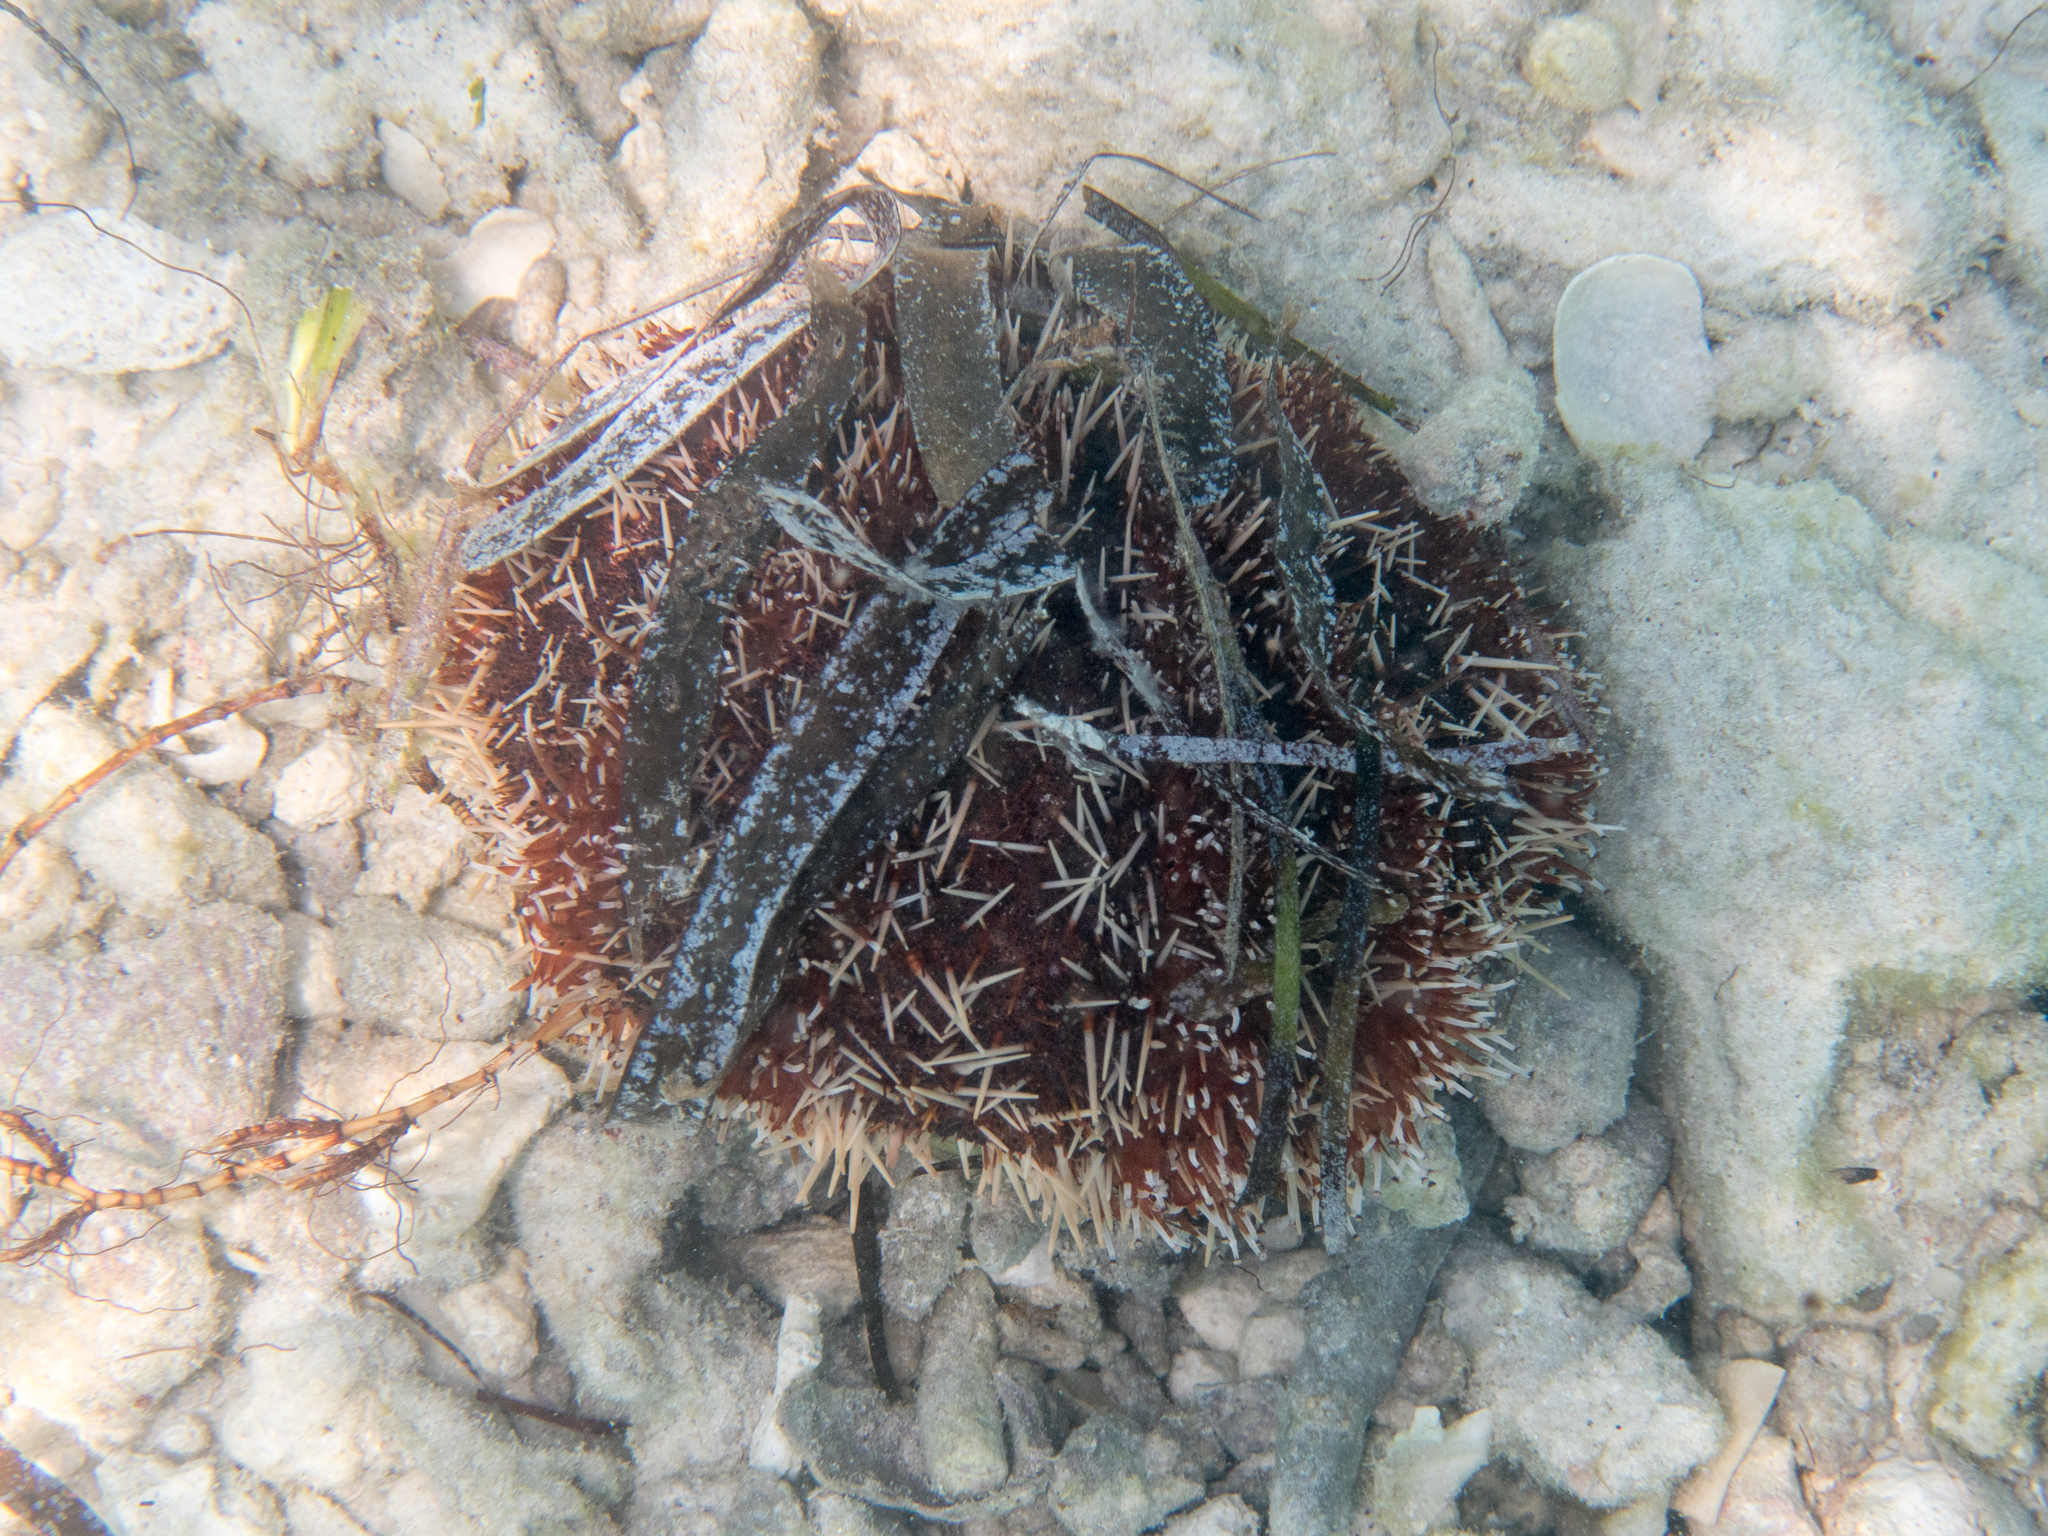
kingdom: Animalia
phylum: Echinodermata
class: Echinoidea
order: Camarodonta
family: Toxopneustidae
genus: Tripneustes
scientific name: Tripneustes gratilla
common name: Bischofsmützenseeigel
